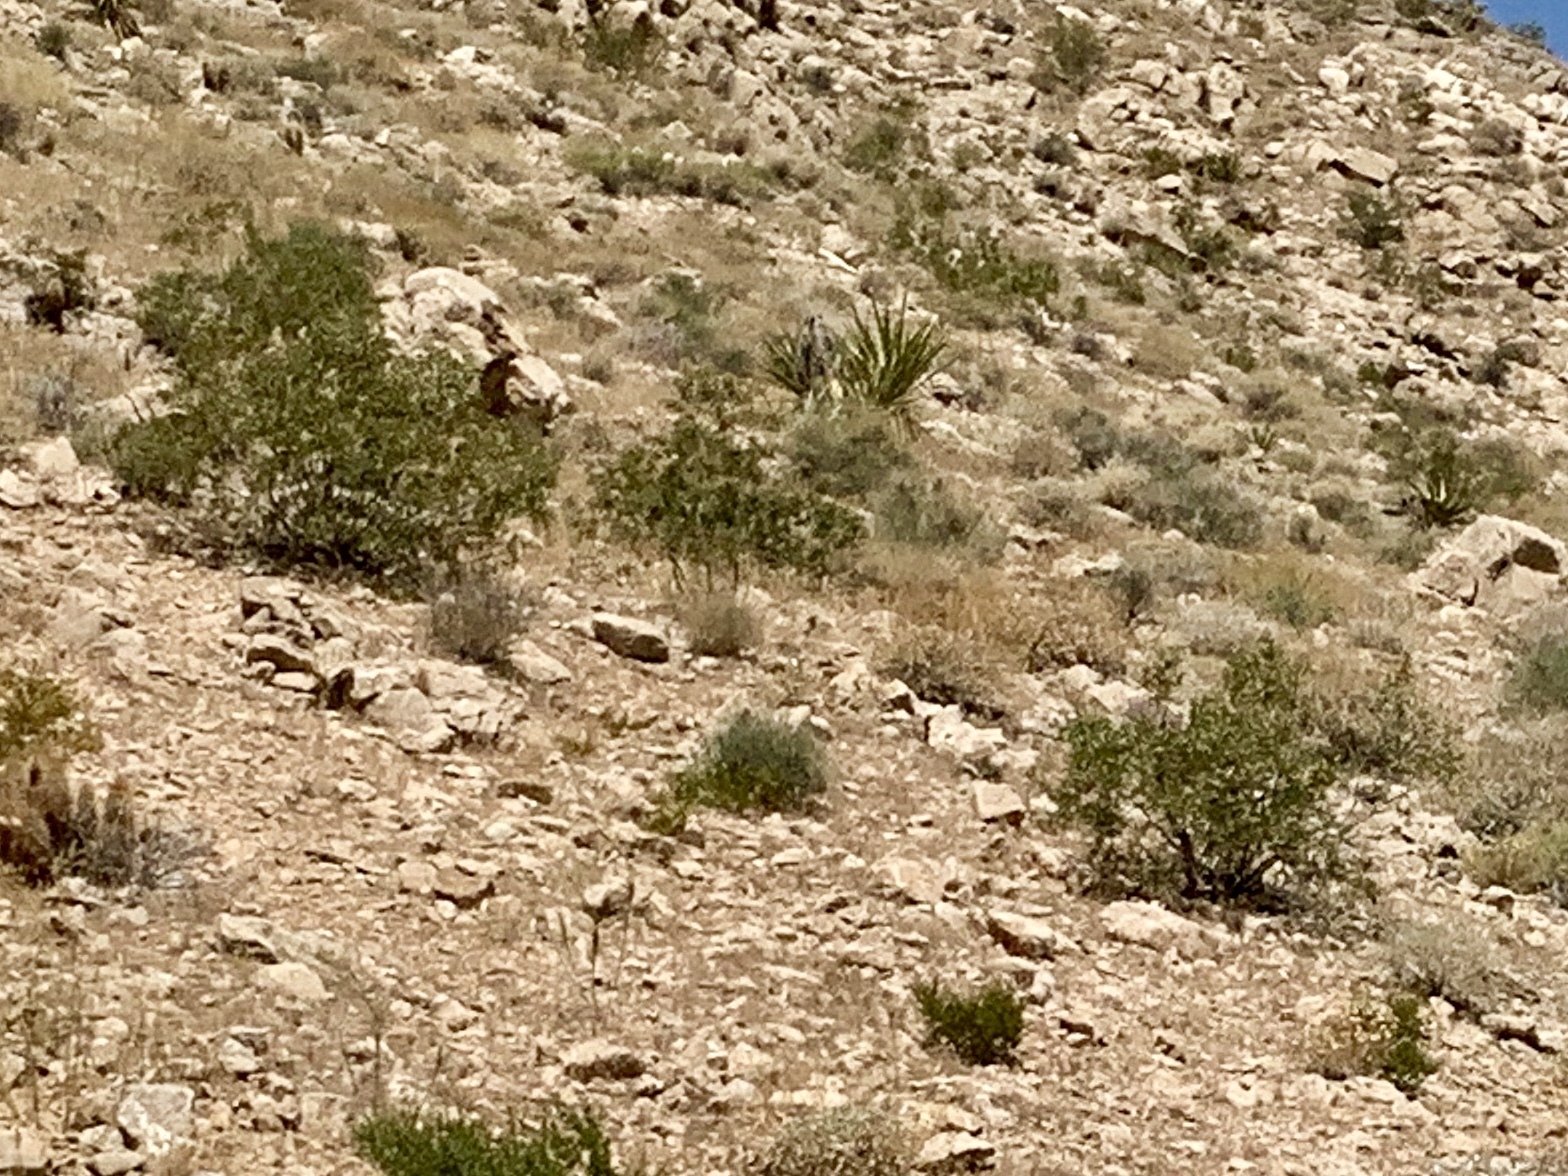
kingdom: Plantae
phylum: Tracheophyta
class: Magnoliopsida
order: Zygophyllales
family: Zygophyllaceae
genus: Larrea
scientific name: Larrea tridentata
